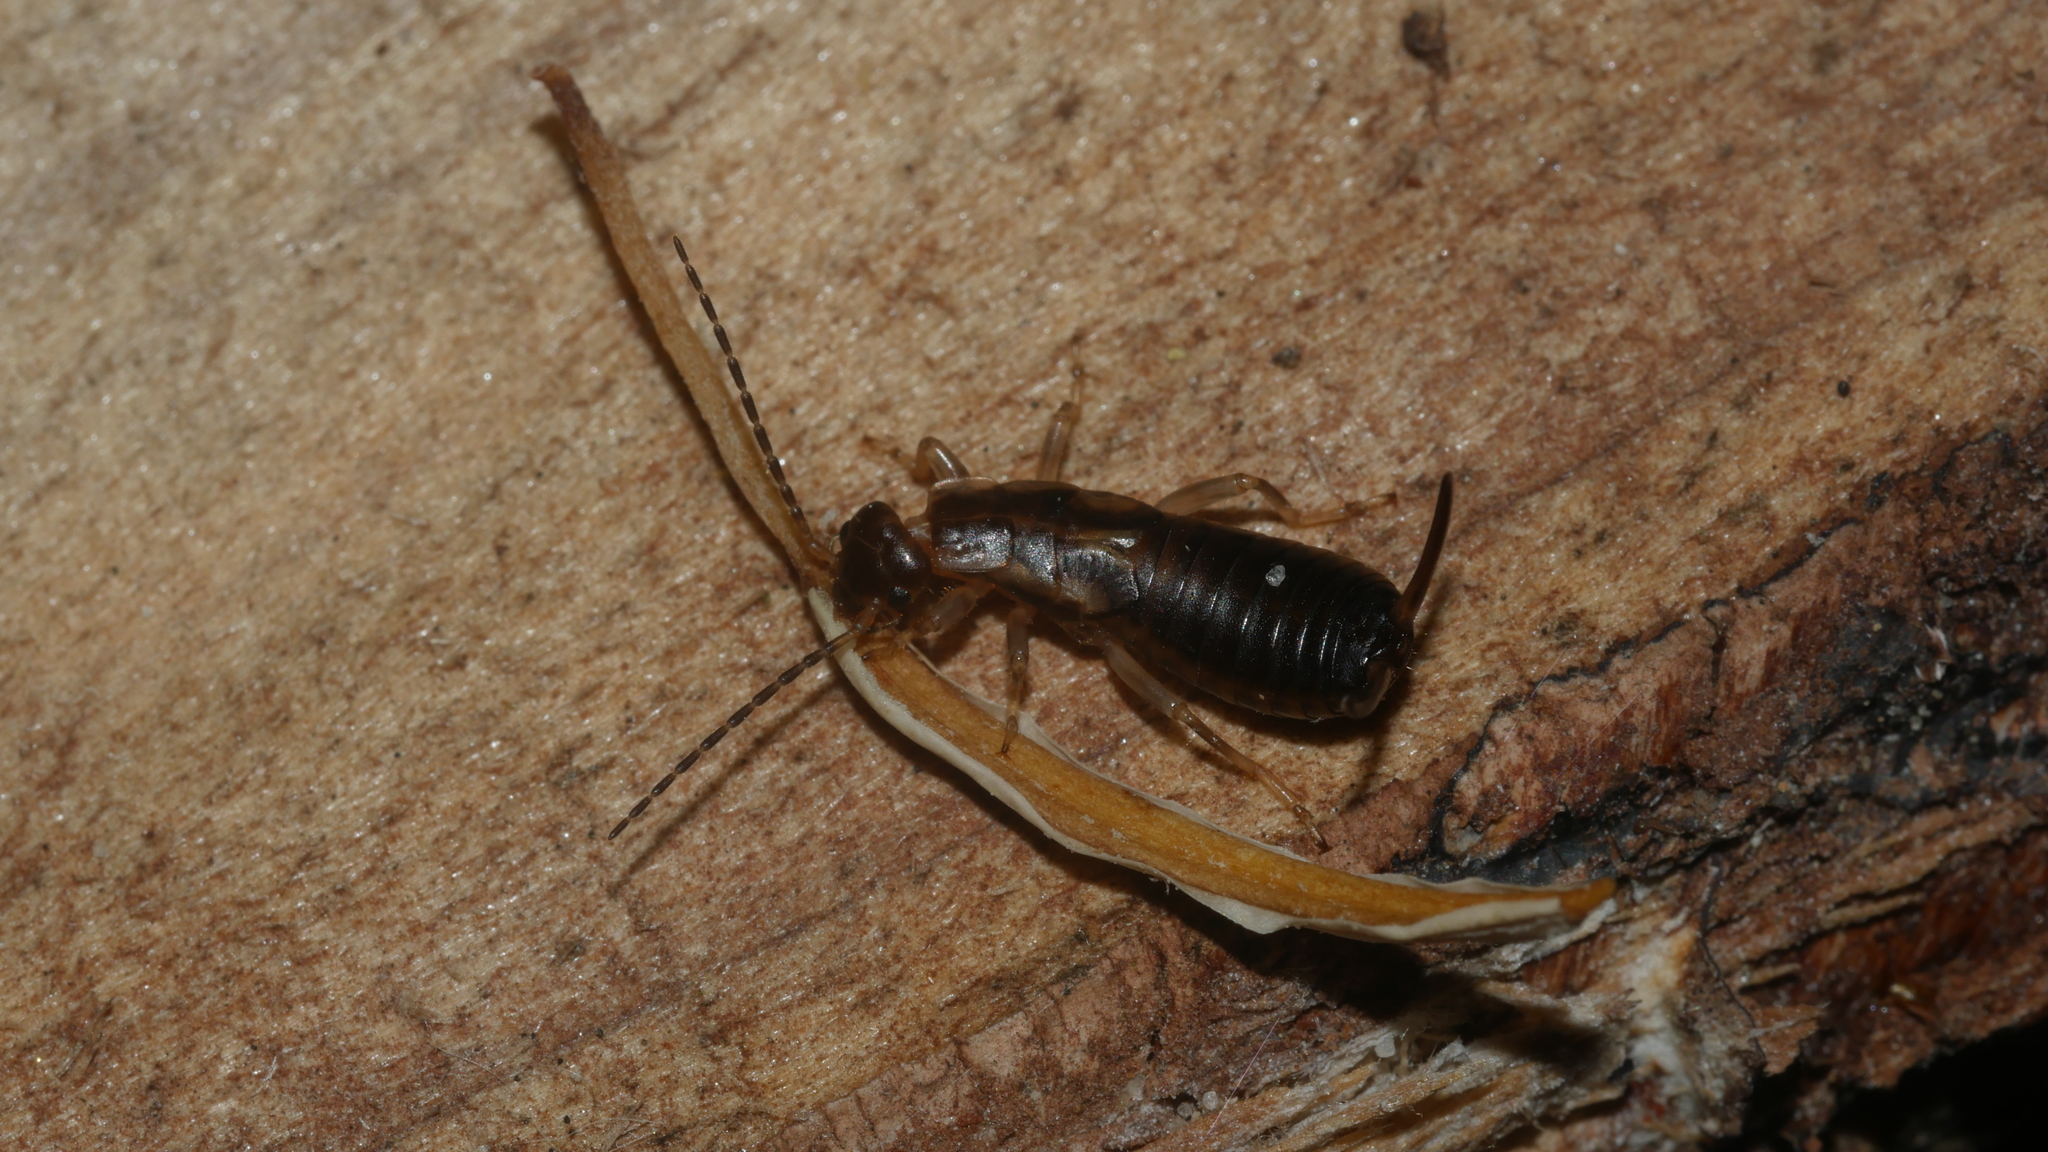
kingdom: Animalia
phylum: Arthropoda
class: Insecta
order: Dermaptera
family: Forficulidae
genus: Forficula
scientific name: Forficula
